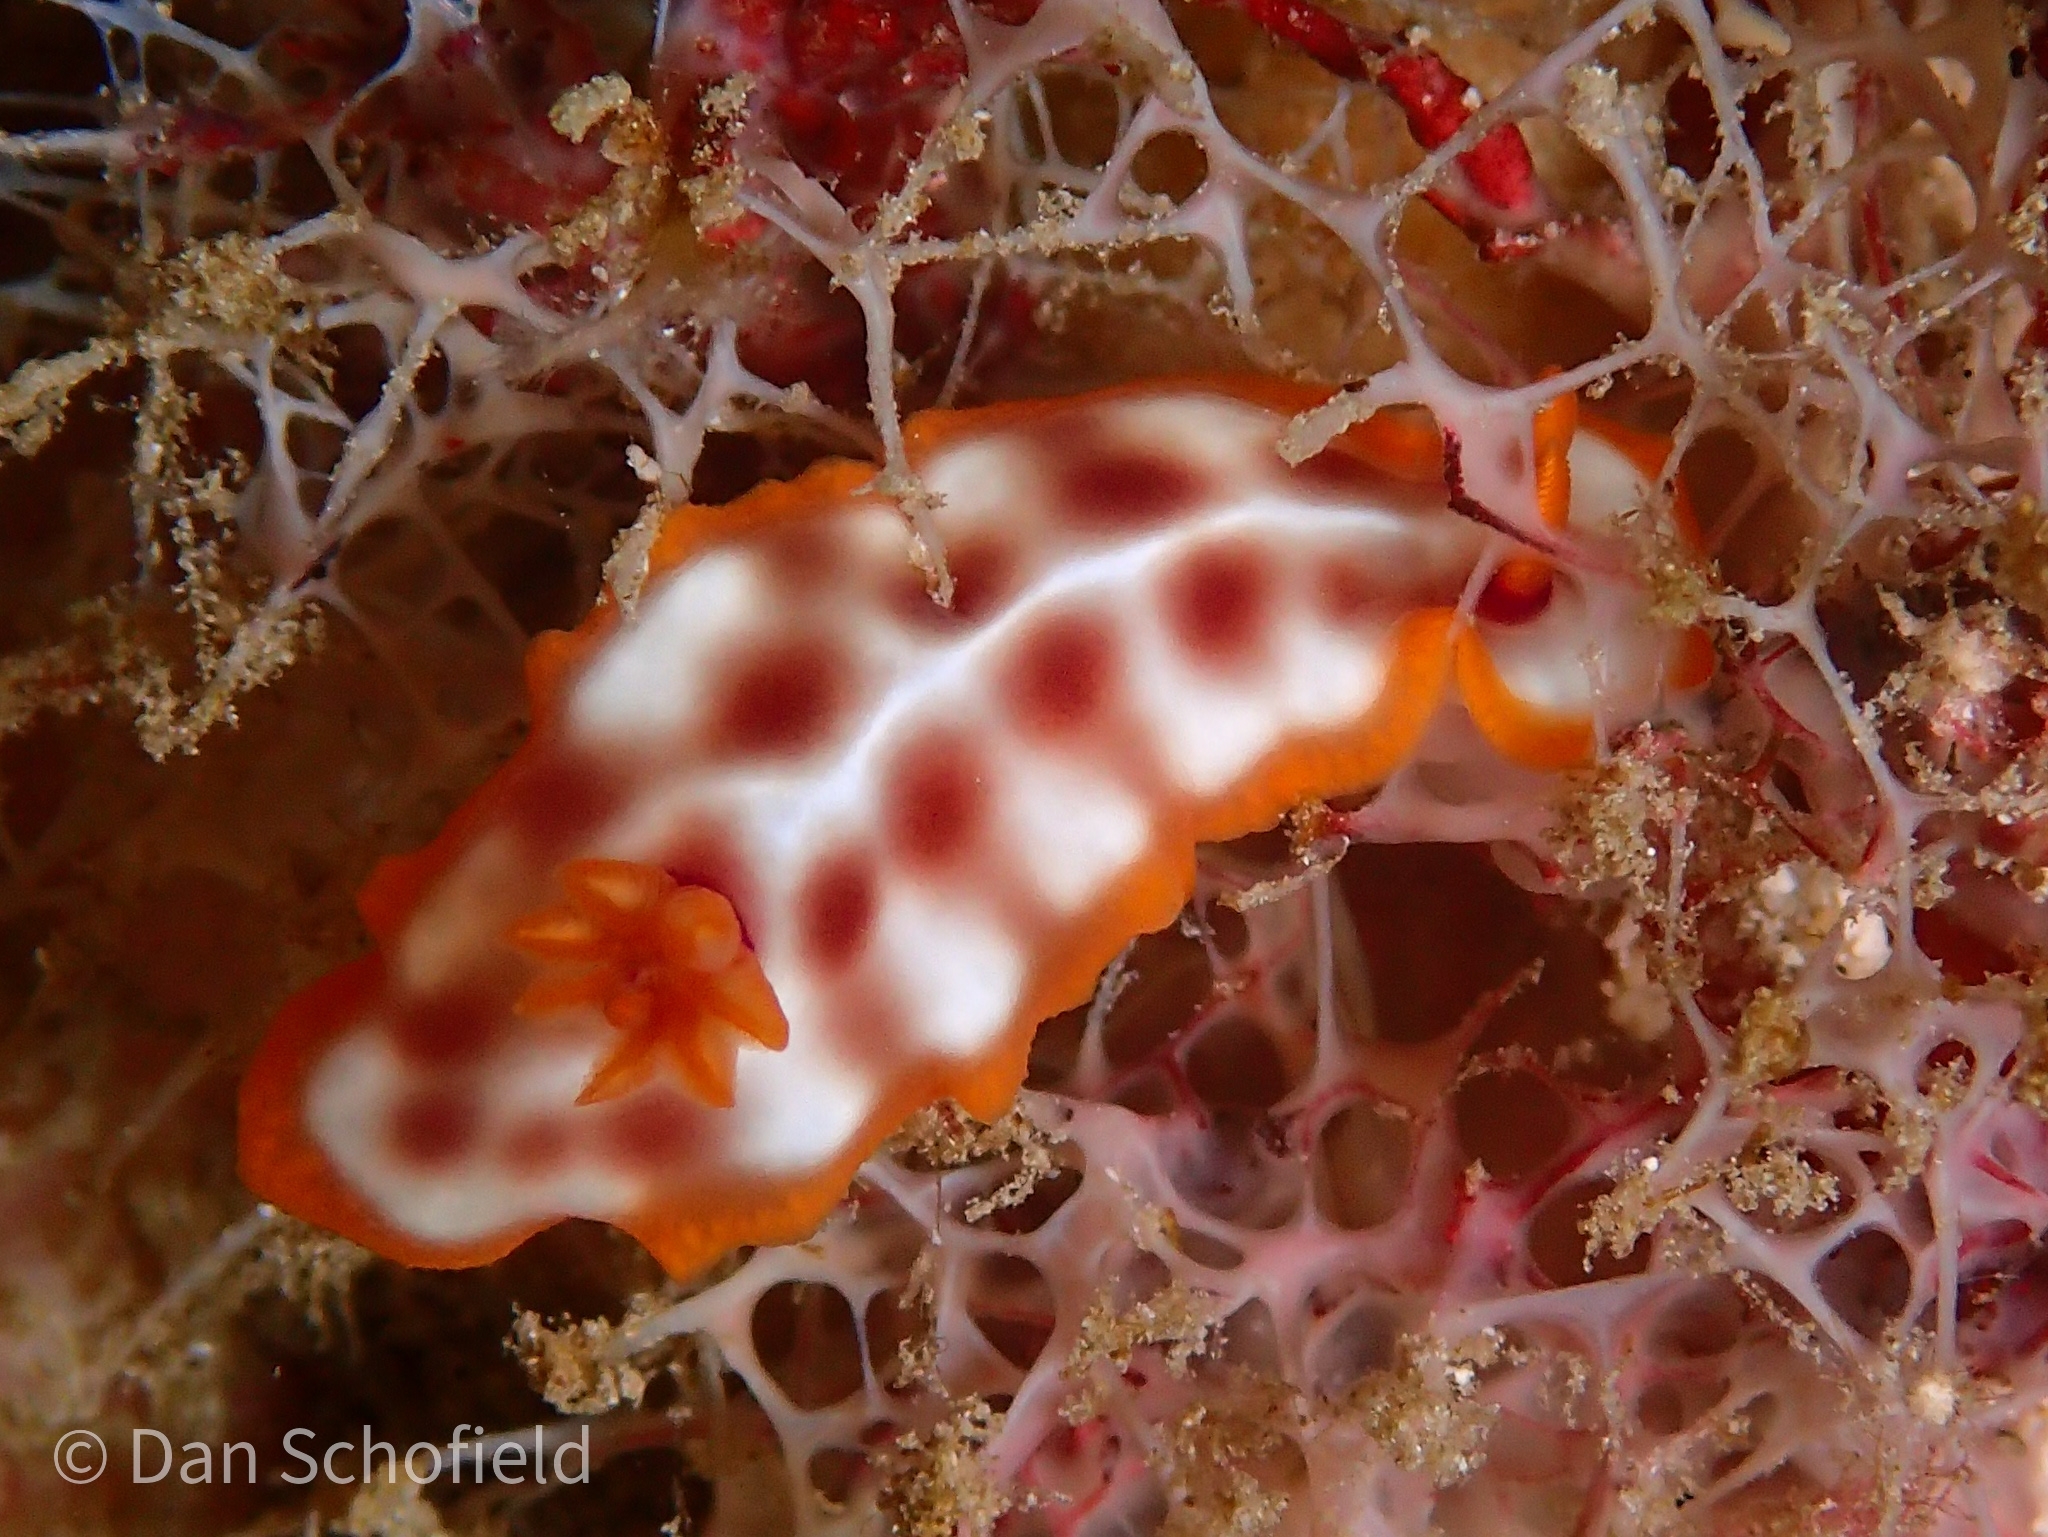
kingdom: Animalia
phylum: Mollusca
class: Gastropoda
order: Nudibranchia
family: Chromodorididae
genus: Hypselodoris
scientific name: Hypselodoris purpureomaculosa
